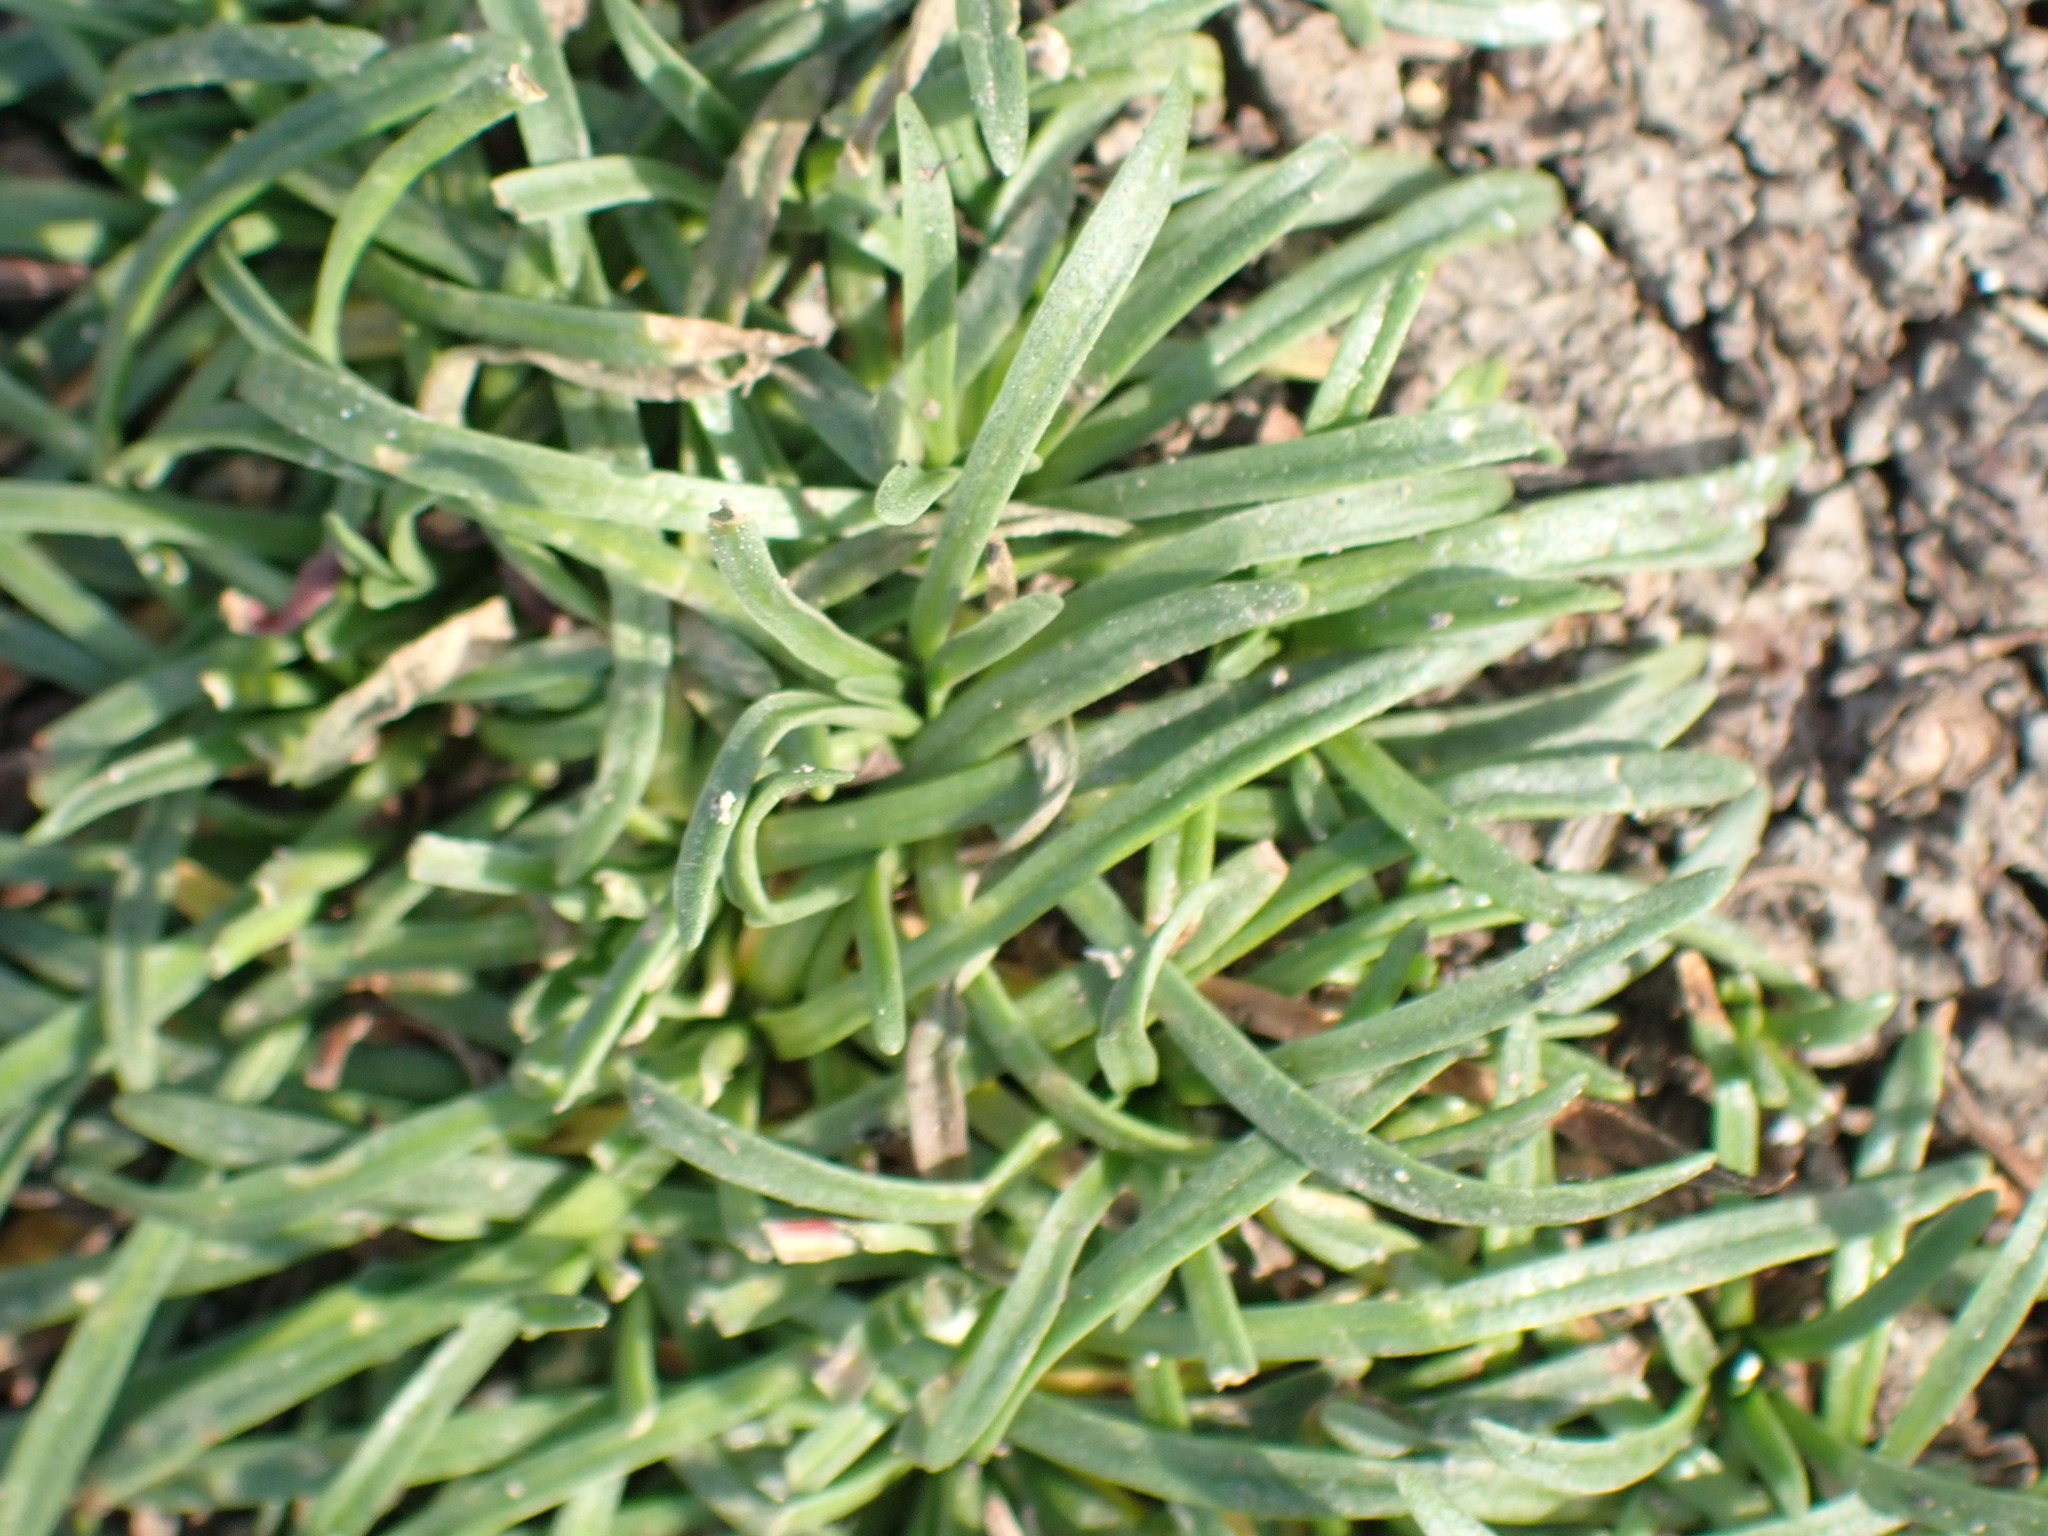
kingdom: Plantae
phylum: Tracheophyta
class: Magnoliopsida
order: Caryophyllales
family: Plumbaginaceae
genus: Armeria
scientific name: Armeria maritima
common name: Thrift
